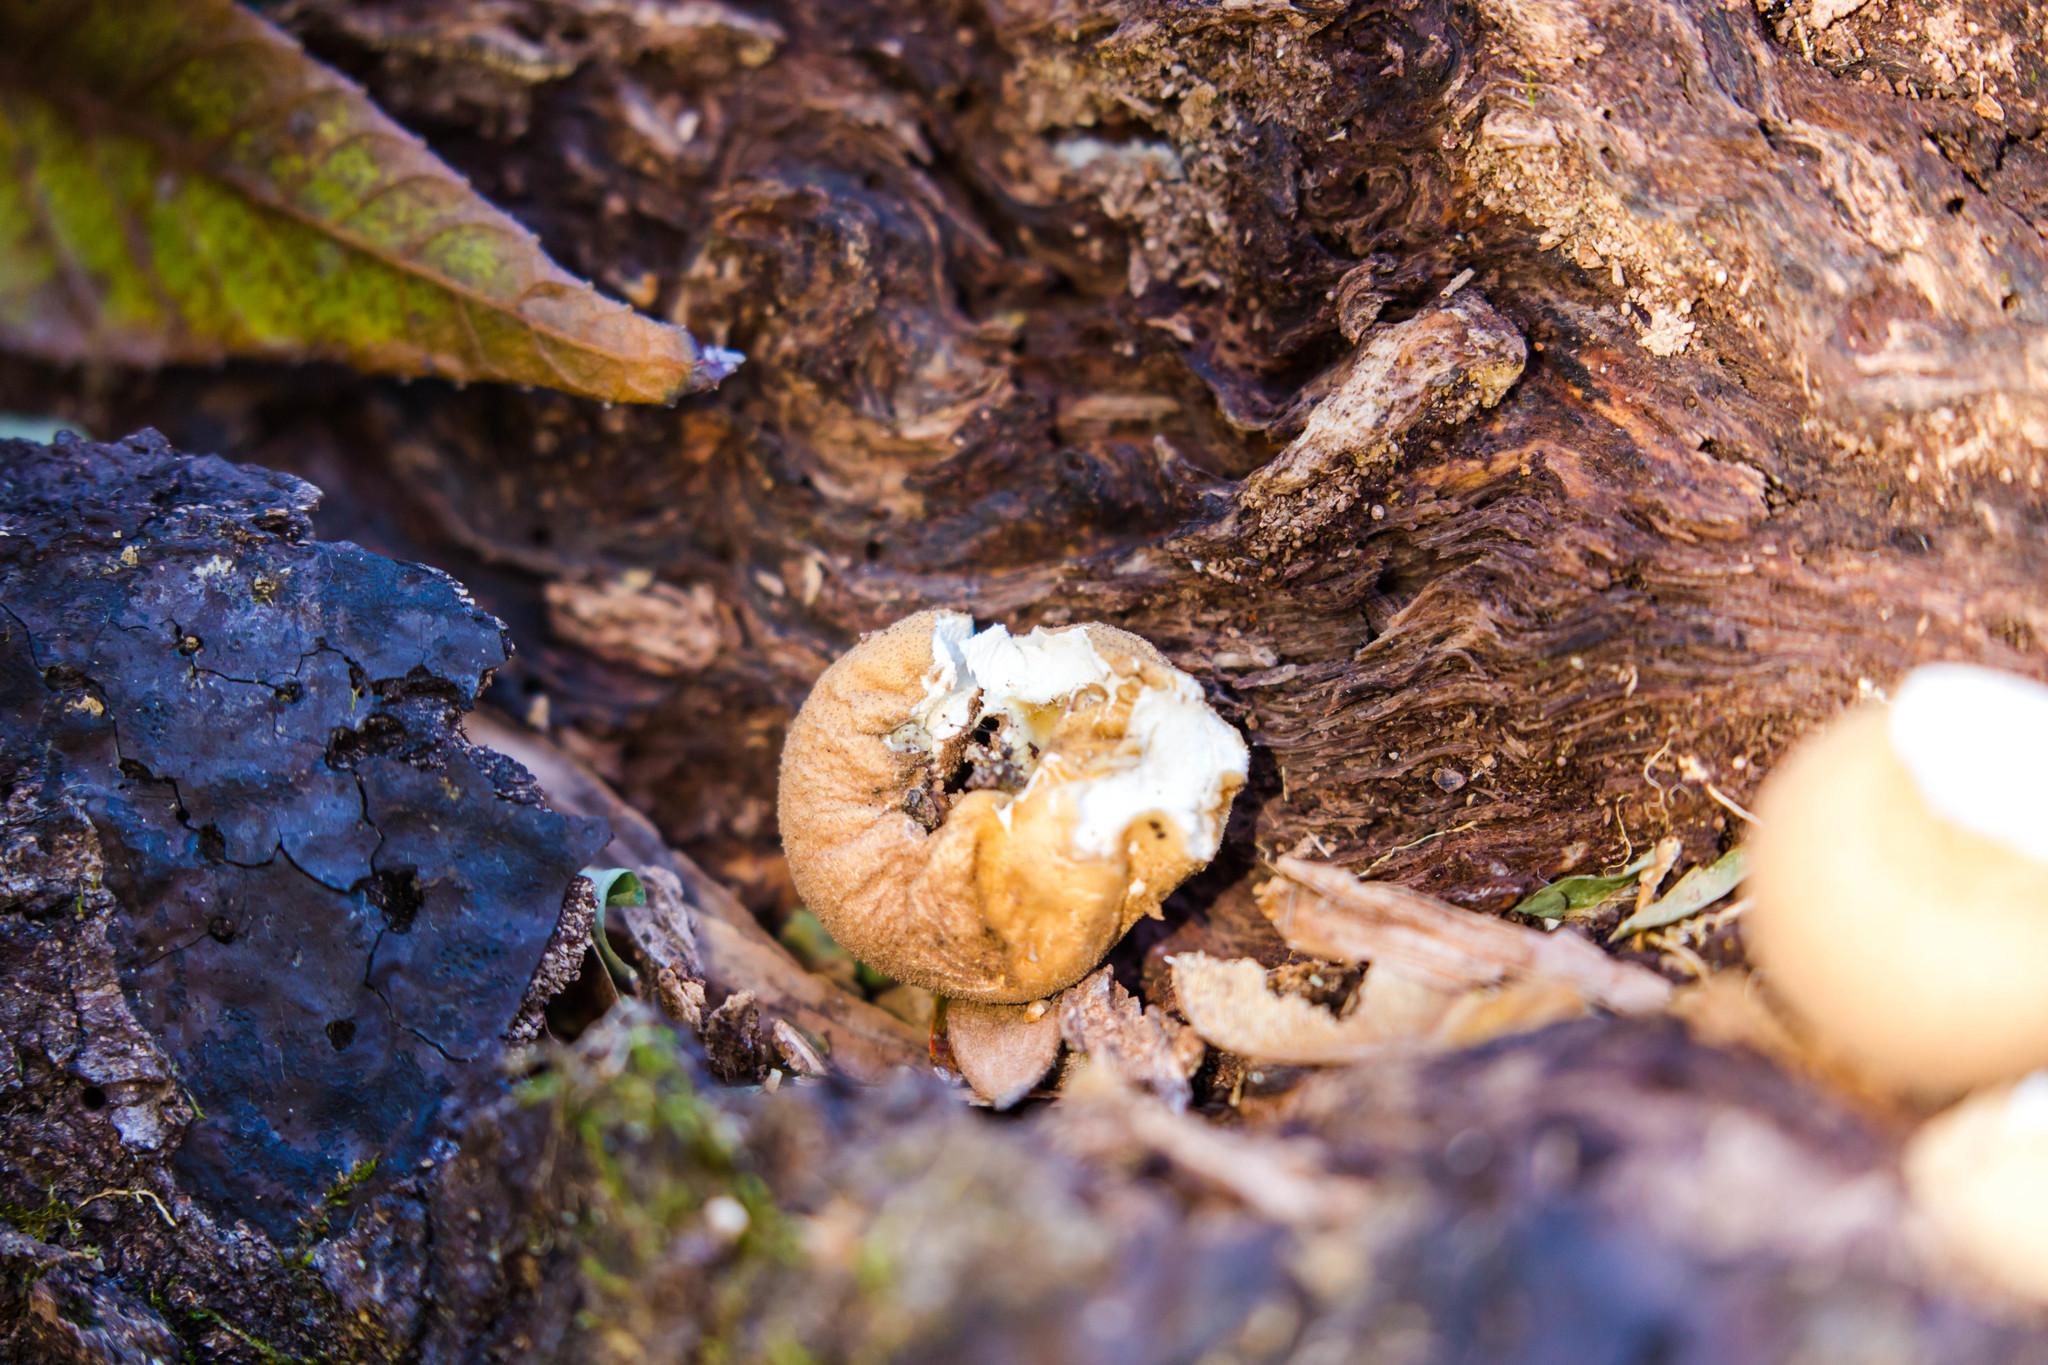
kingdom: Fungi
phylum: Basidiomycota
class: Agaricomycetes
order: Agaricales
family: Lycoperdaceae
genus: Apioperdon
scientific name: Apioperdon pyriforme
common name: Pear-shaped puffball
